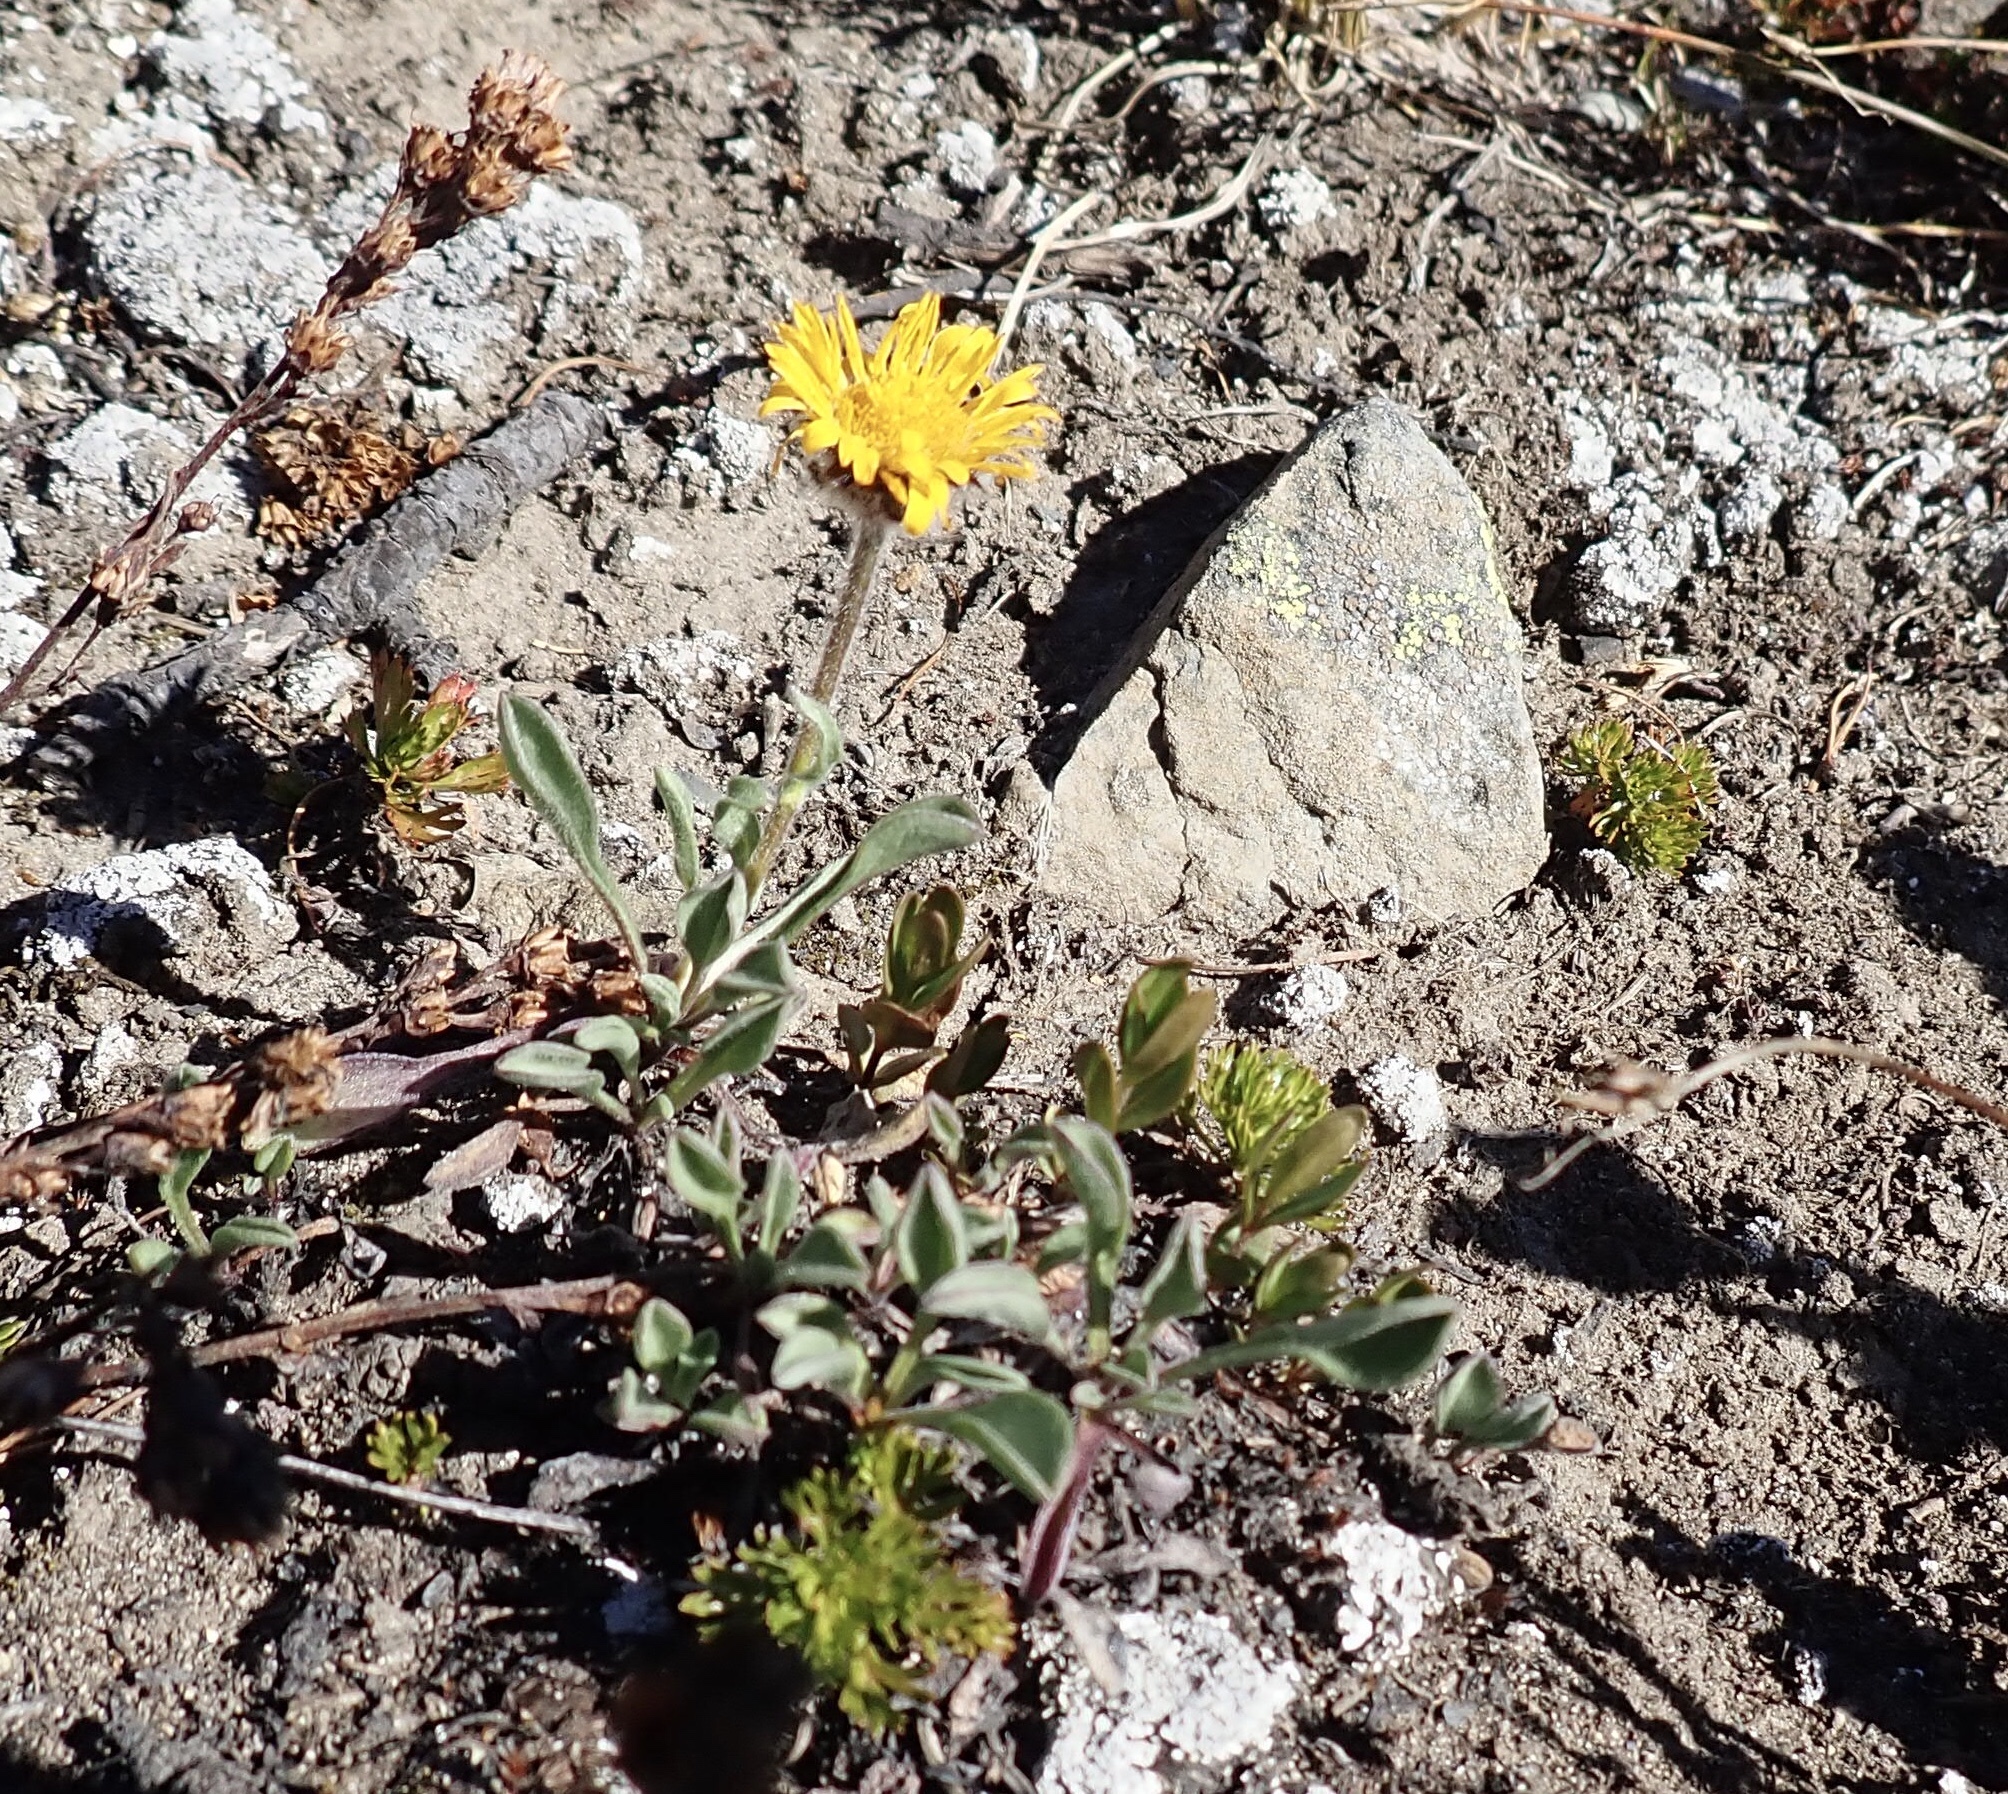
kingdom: Plantae
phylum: Tracheophyta
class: Magnoliopsida
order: Asterales
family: Asteraceae
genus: Erigeron
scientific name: Erigeron aureus
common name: Alpine yellow fleabane
